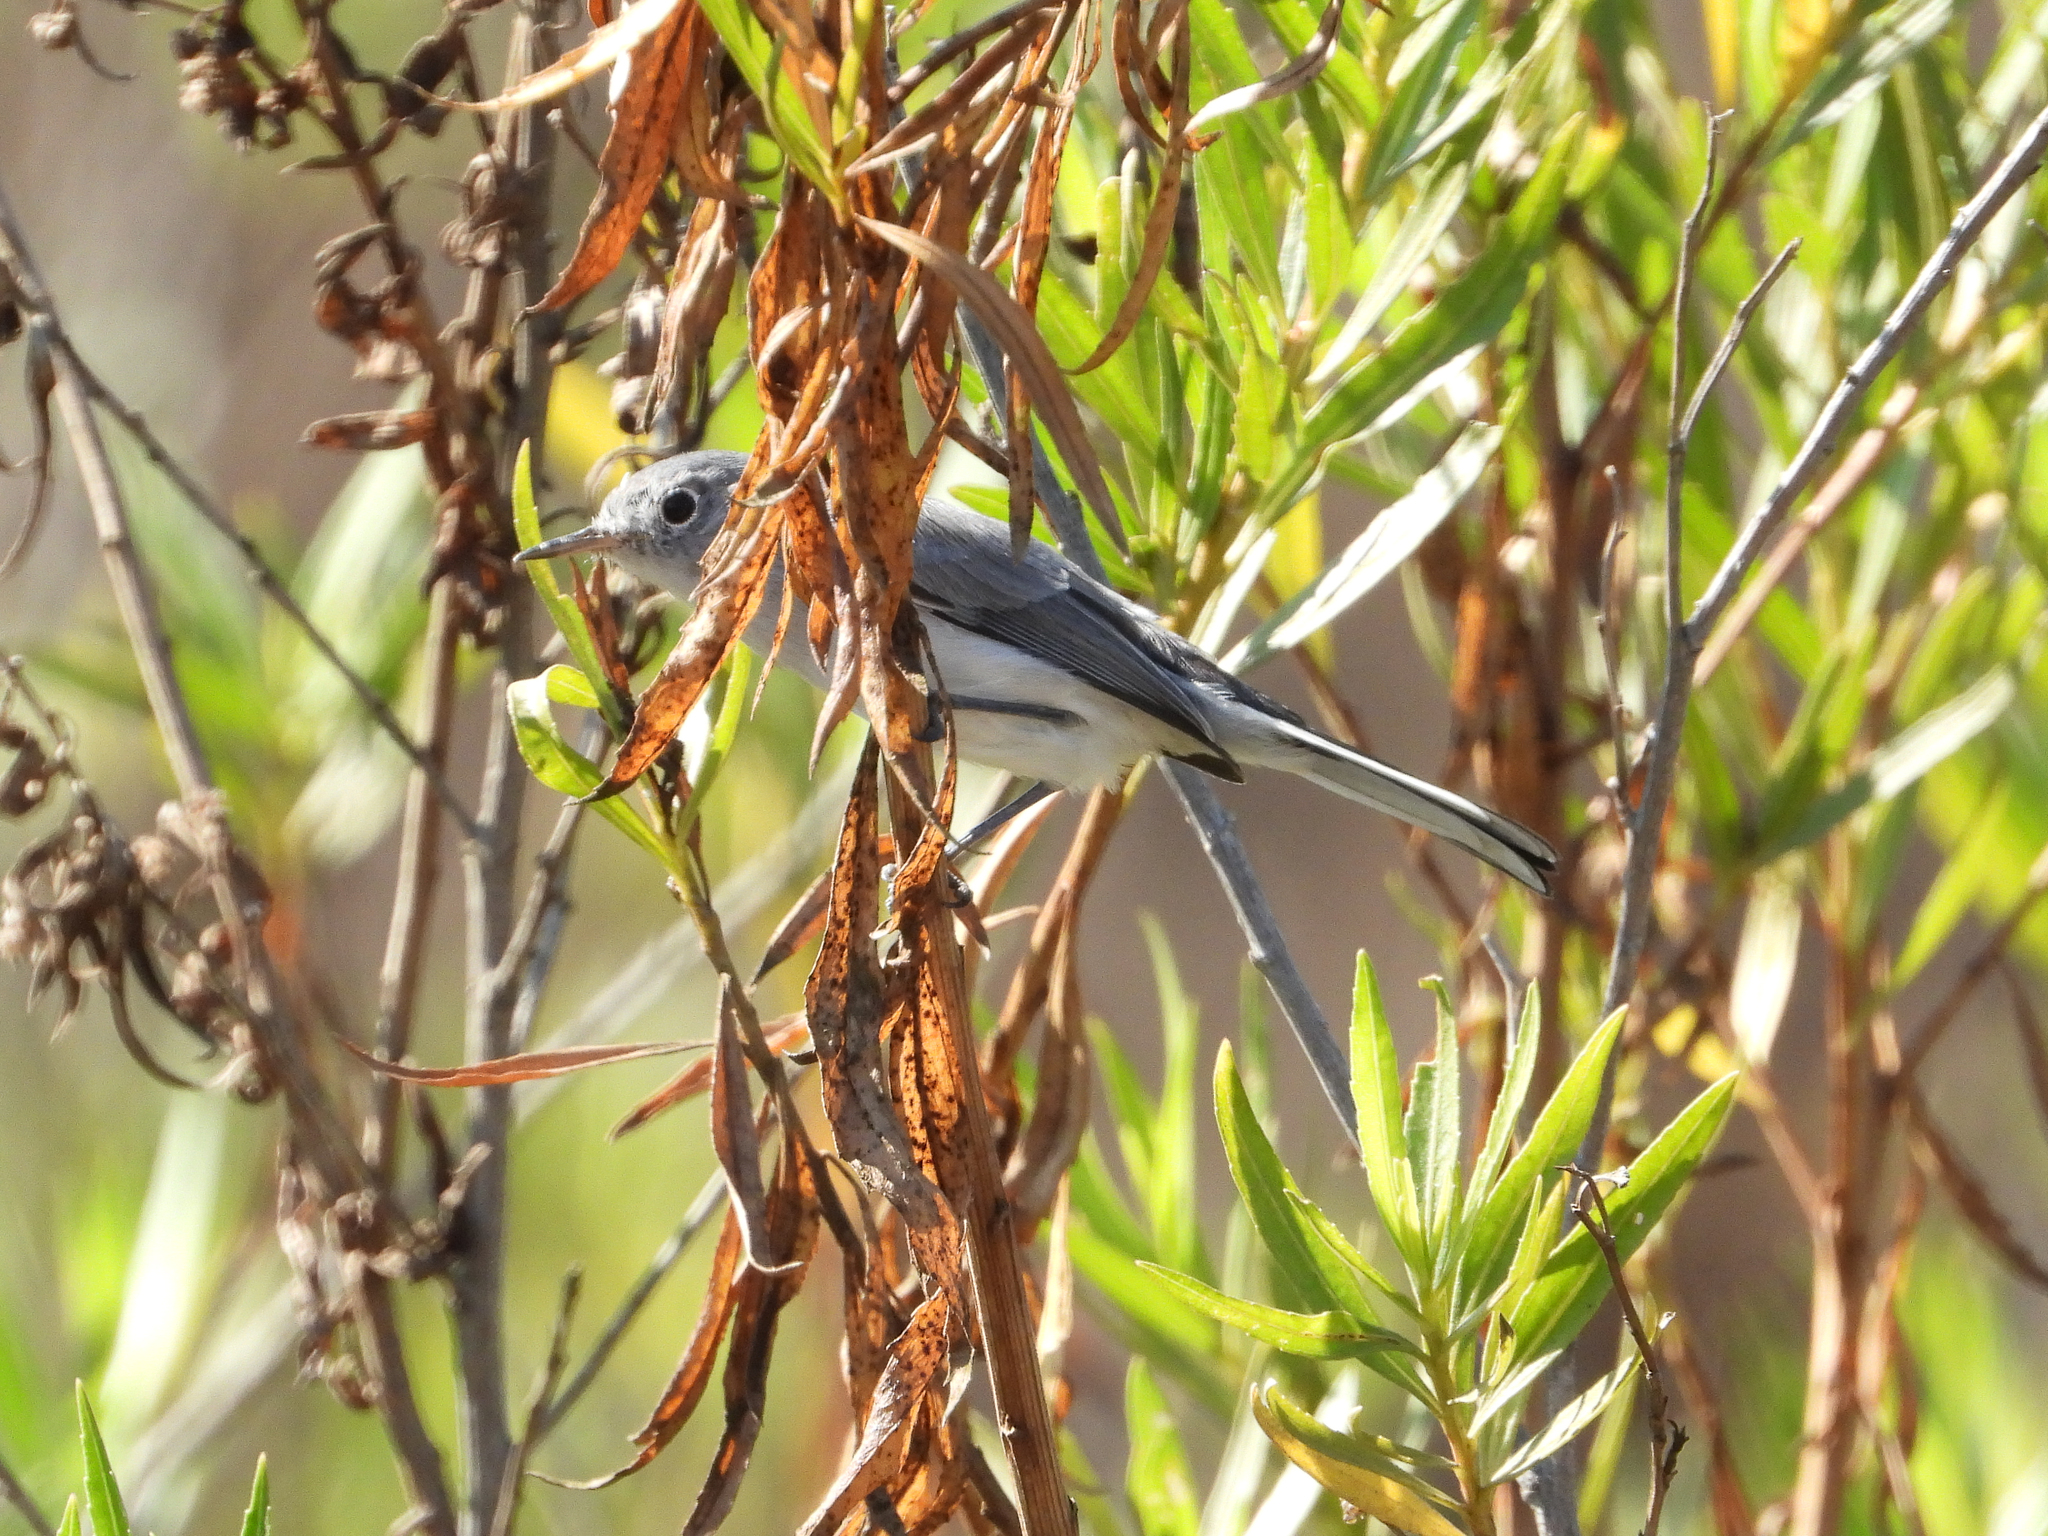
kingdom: Animalia
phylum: Chordata
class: Aves
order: Passeriformes
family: Polioptilidae
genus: Polioptila
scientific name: Polioptila caerulea
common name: Blue-gray gnatcatcher
